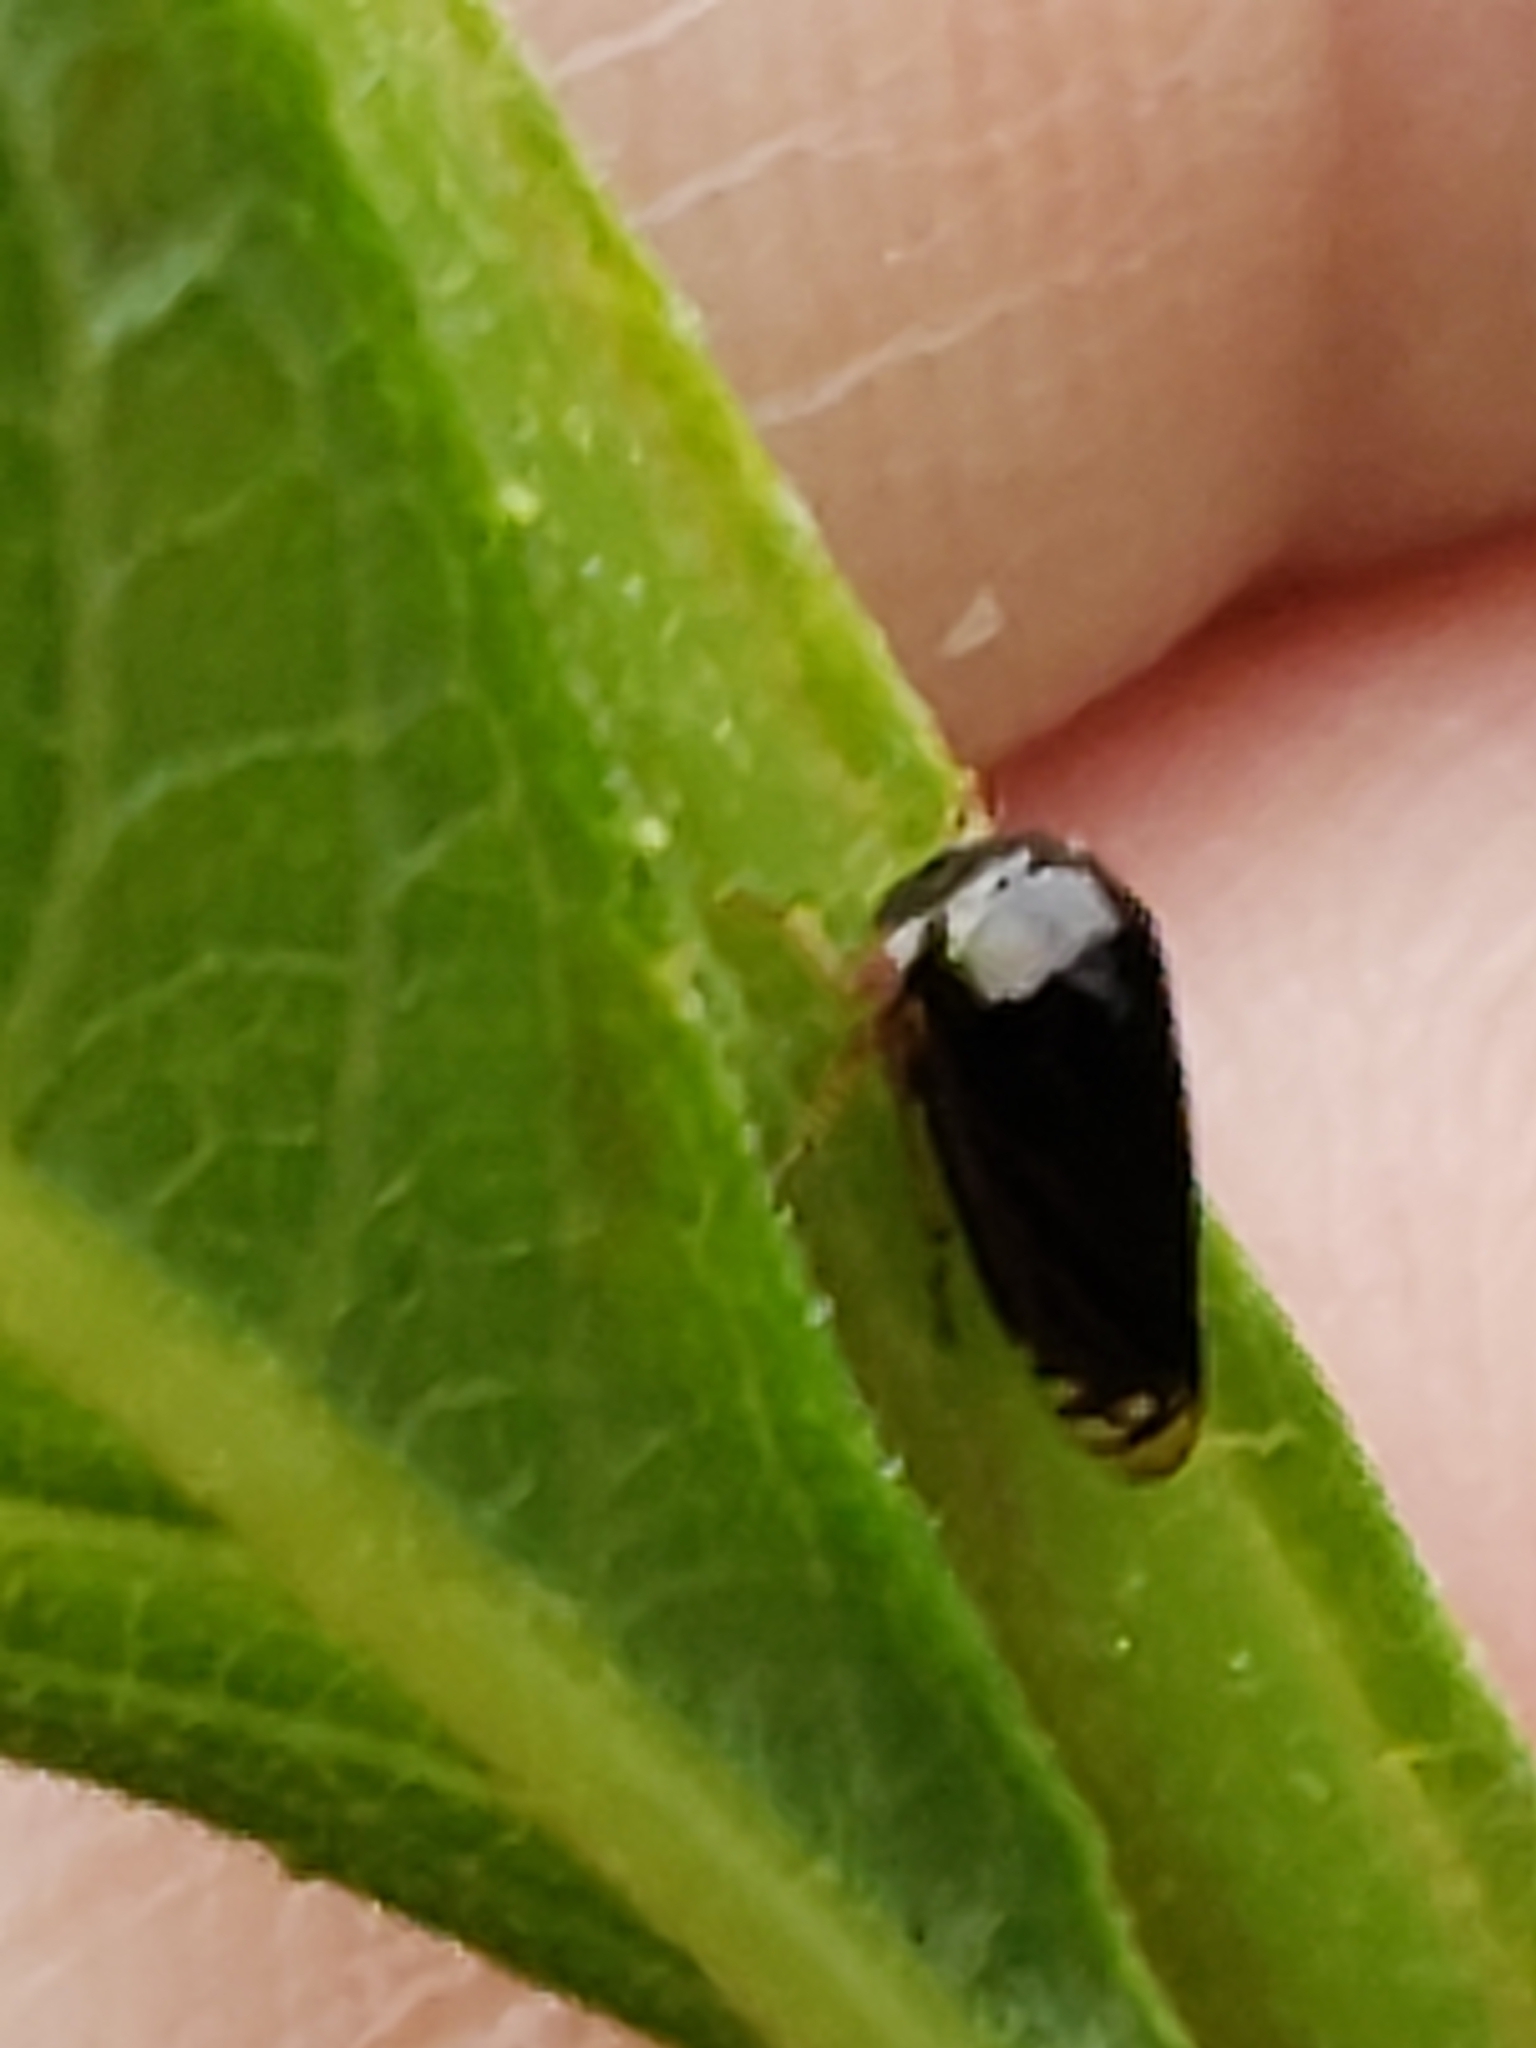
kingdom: Animalia
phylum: Arthropoda
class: Insecta
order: Hemiptera
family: Membracidae
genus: Acutalis
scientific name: Acutalis tartarea
